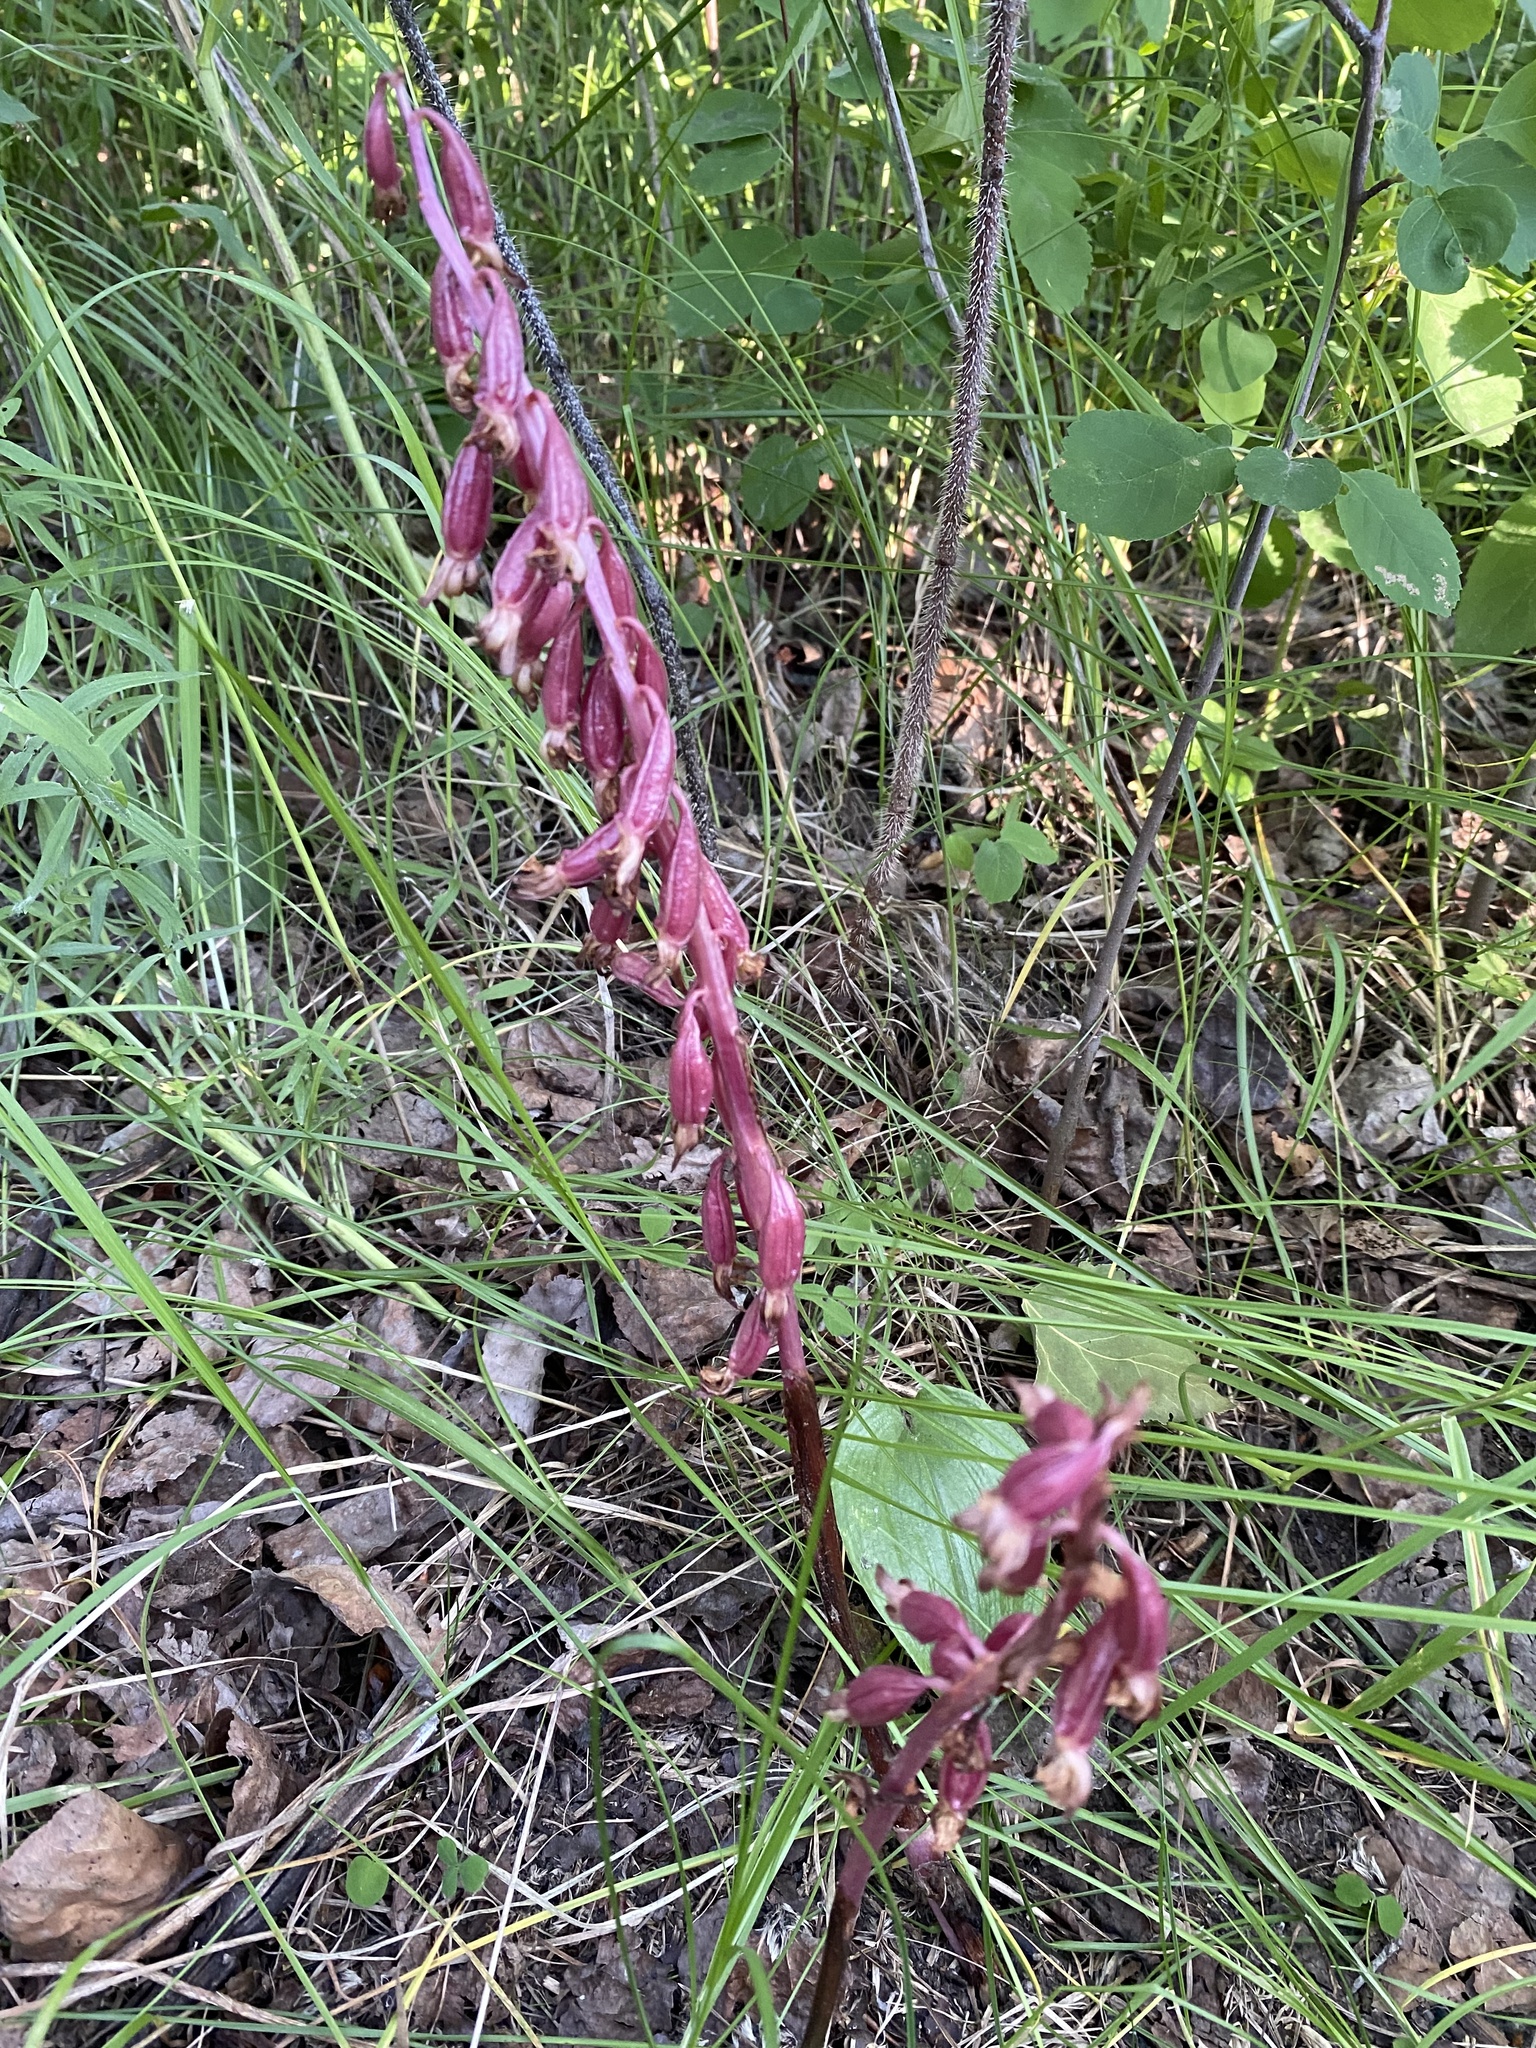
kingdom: Plantae
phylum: Tracheophyta
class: Liliopsida
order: Asparagales
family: Orchidaceae
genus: Corallorhiza
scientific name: Corallorhiza maculata
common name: Spotted coralroot
